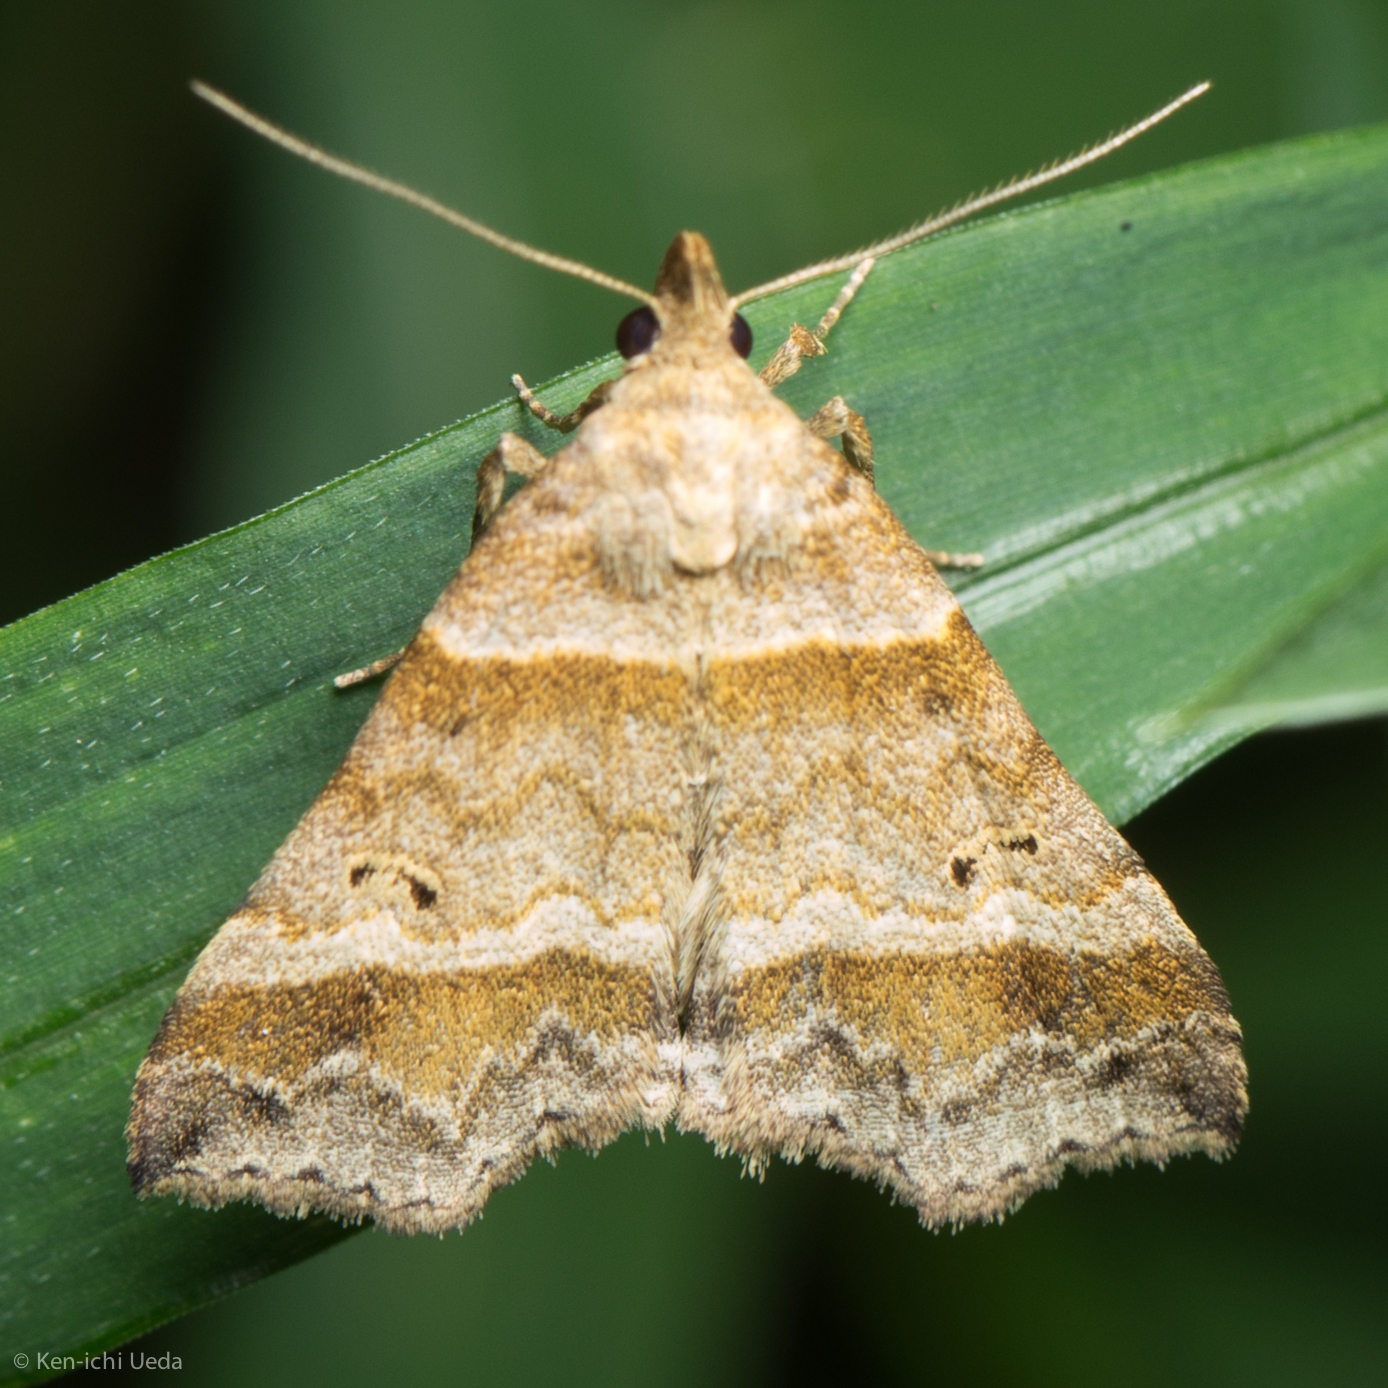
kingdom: Animalia
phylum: Arthropoda
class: Insecta
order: Lepidoptera
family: Erebidae
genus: Phaeolita
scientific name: Phaeolita pyramusalis
